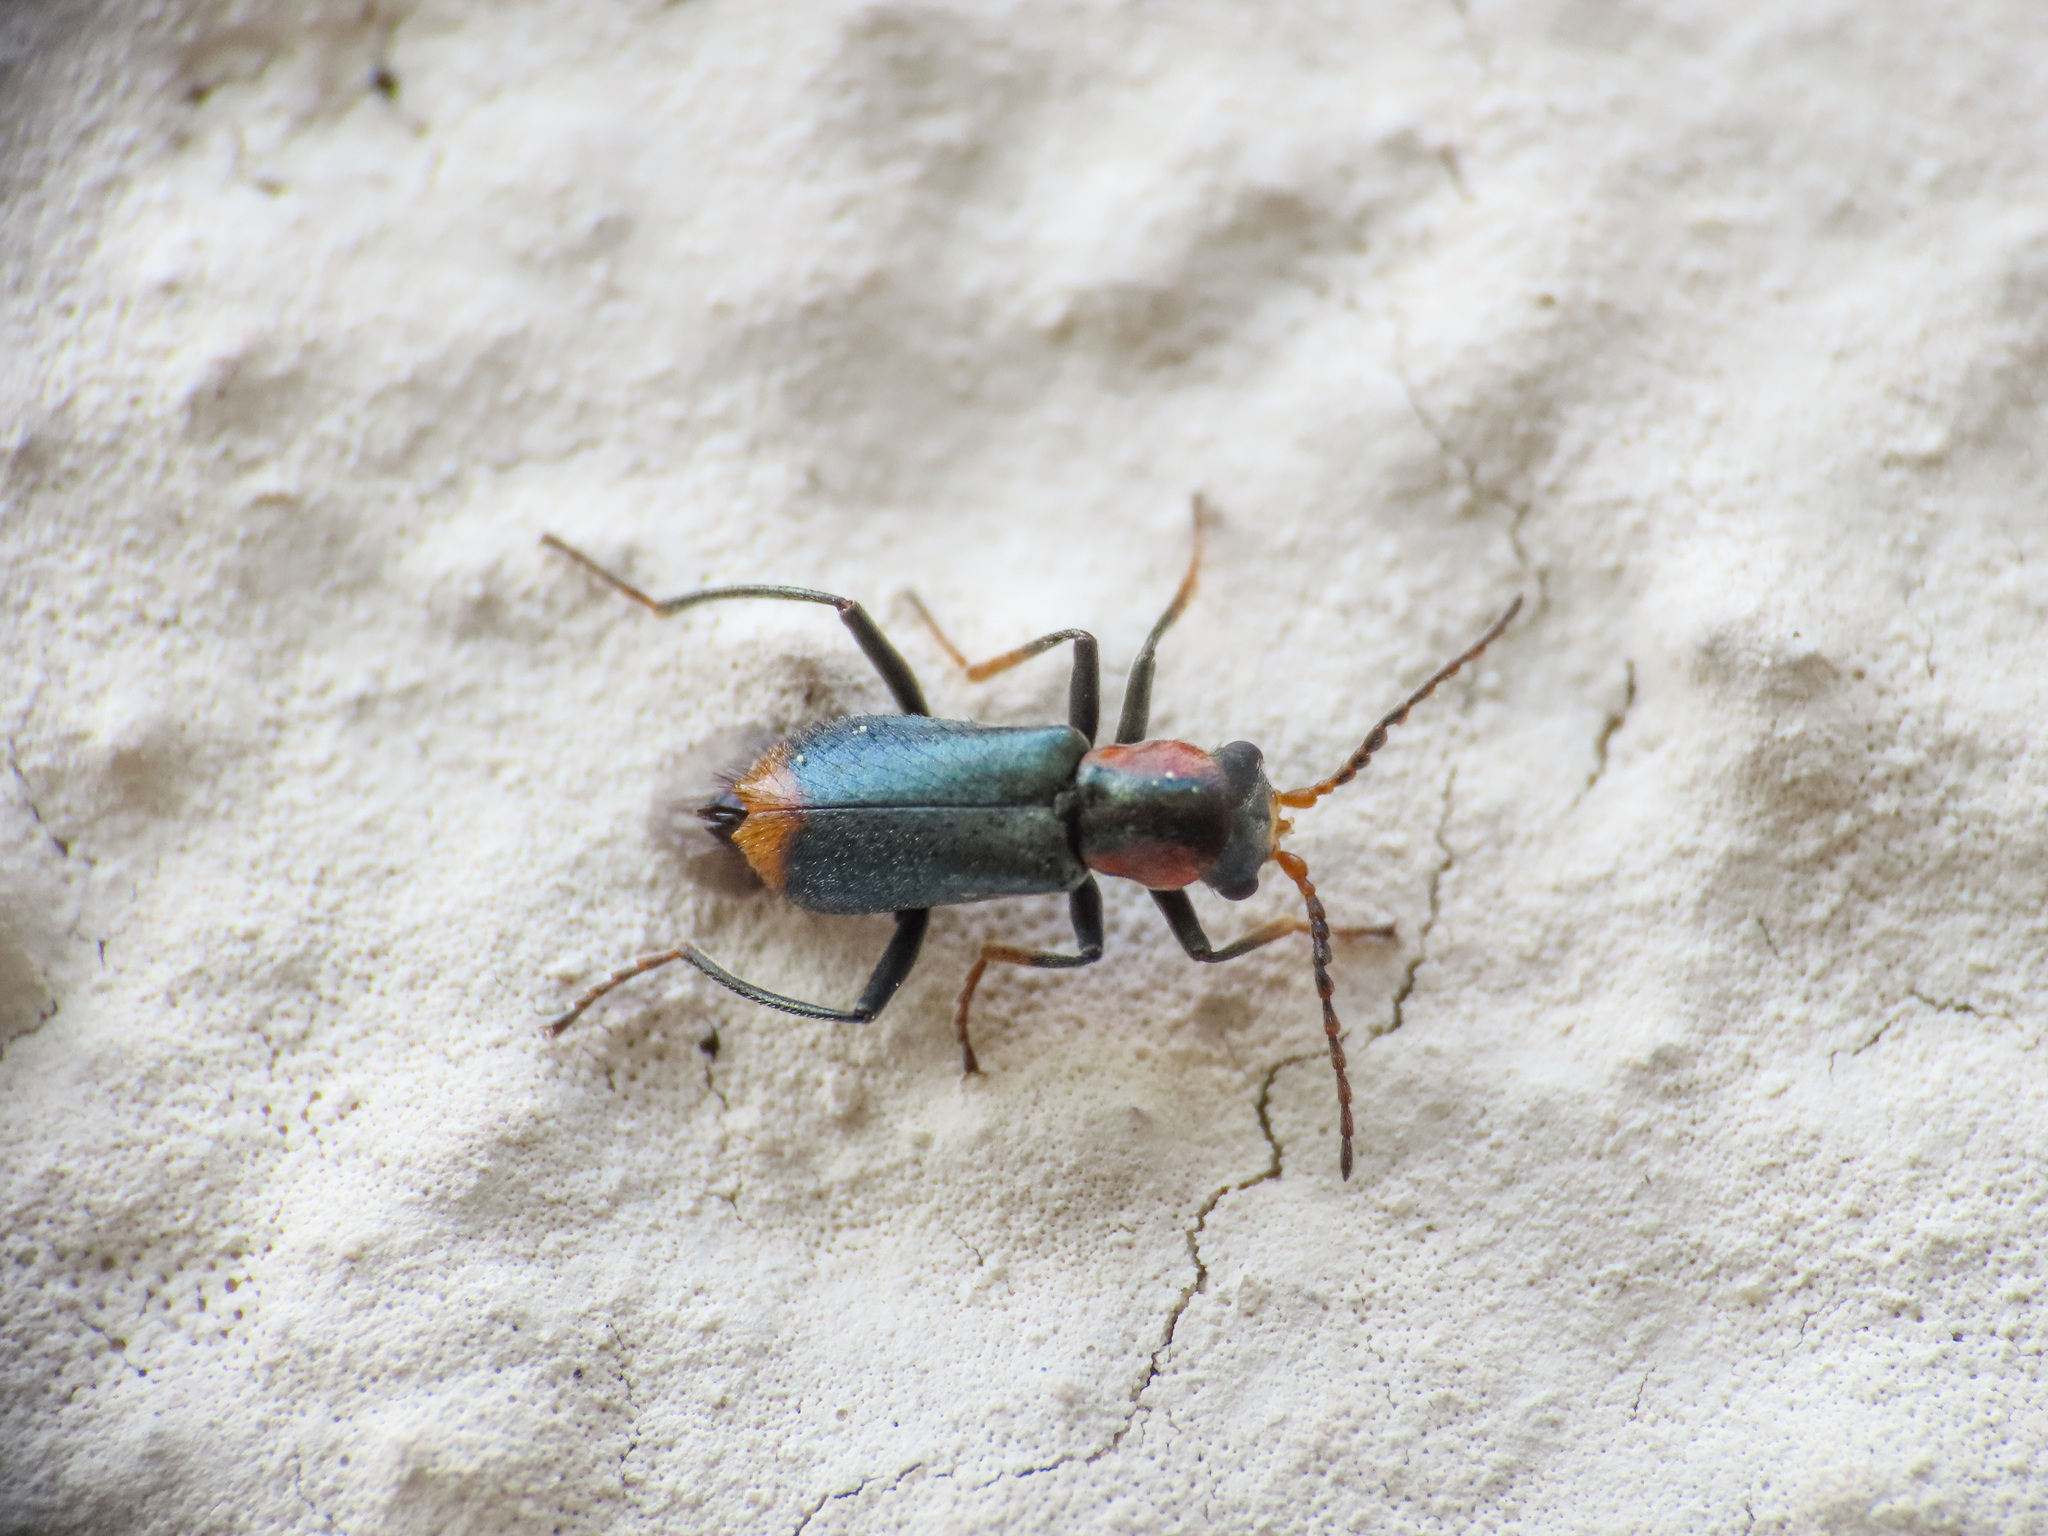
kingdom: Animalia
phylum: Arthropoda
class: Insecta
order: Coleoptera
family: Melyridae
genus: Cyrtosus
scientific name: Cyrtosus ovalis
